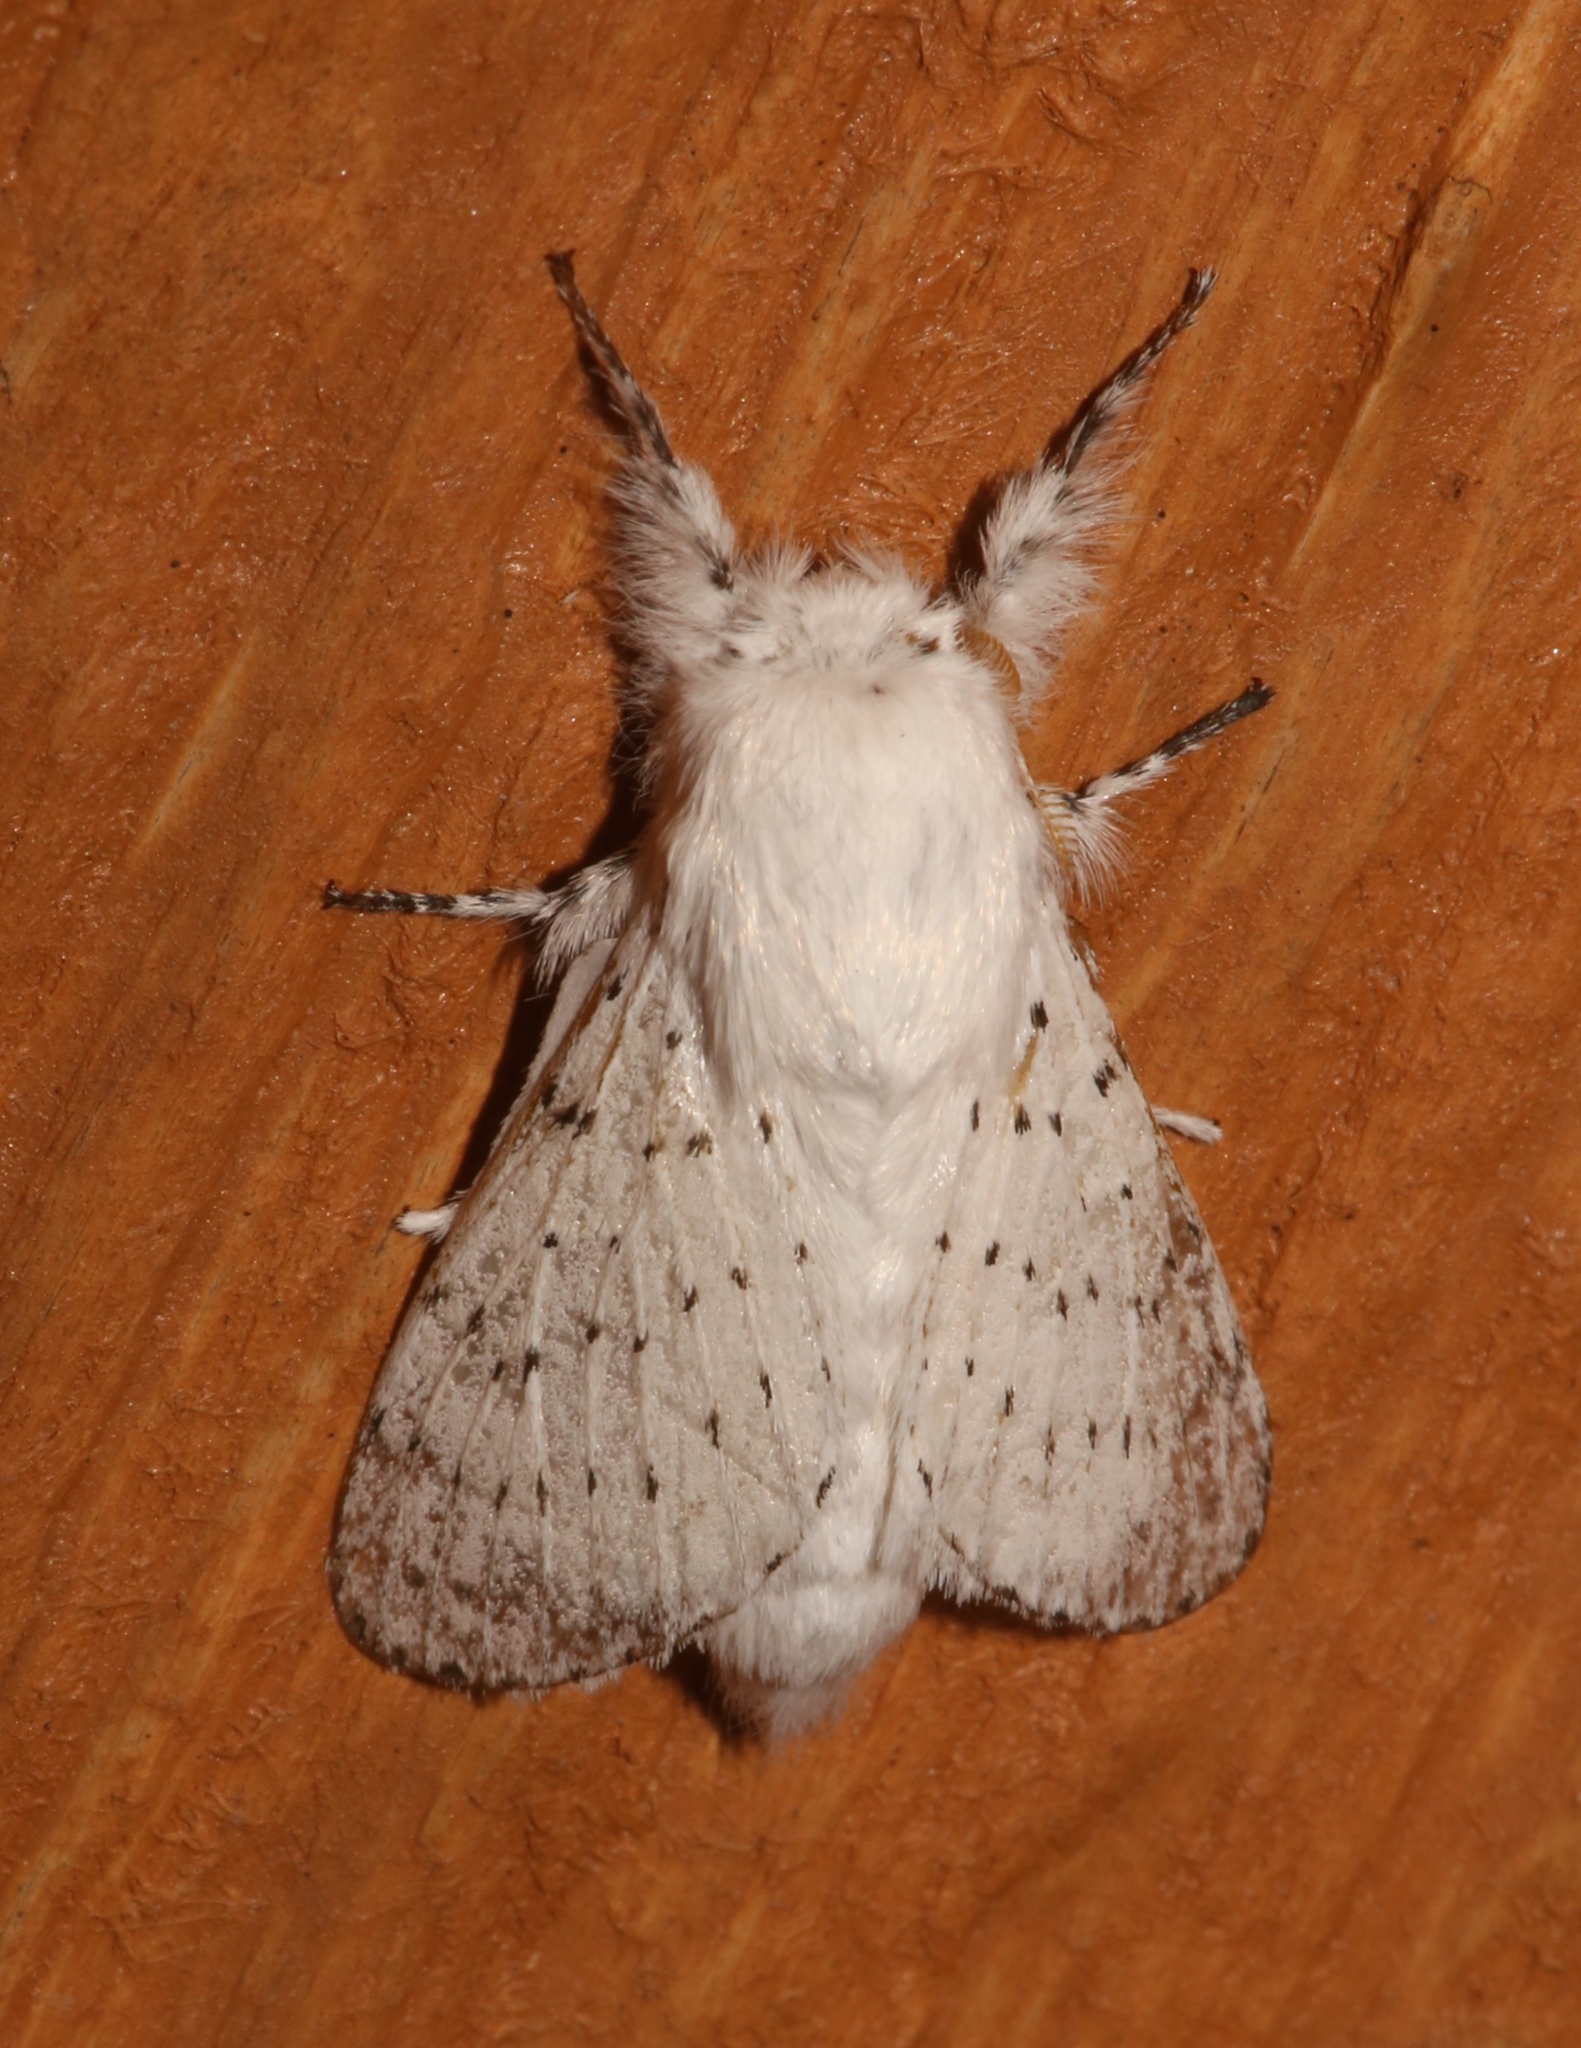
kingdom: Animalia
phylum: Arthropoda
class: Insecta
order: Lepidoptera
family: Lasiocampidae
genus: Artace
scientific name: Artace cribrarius
